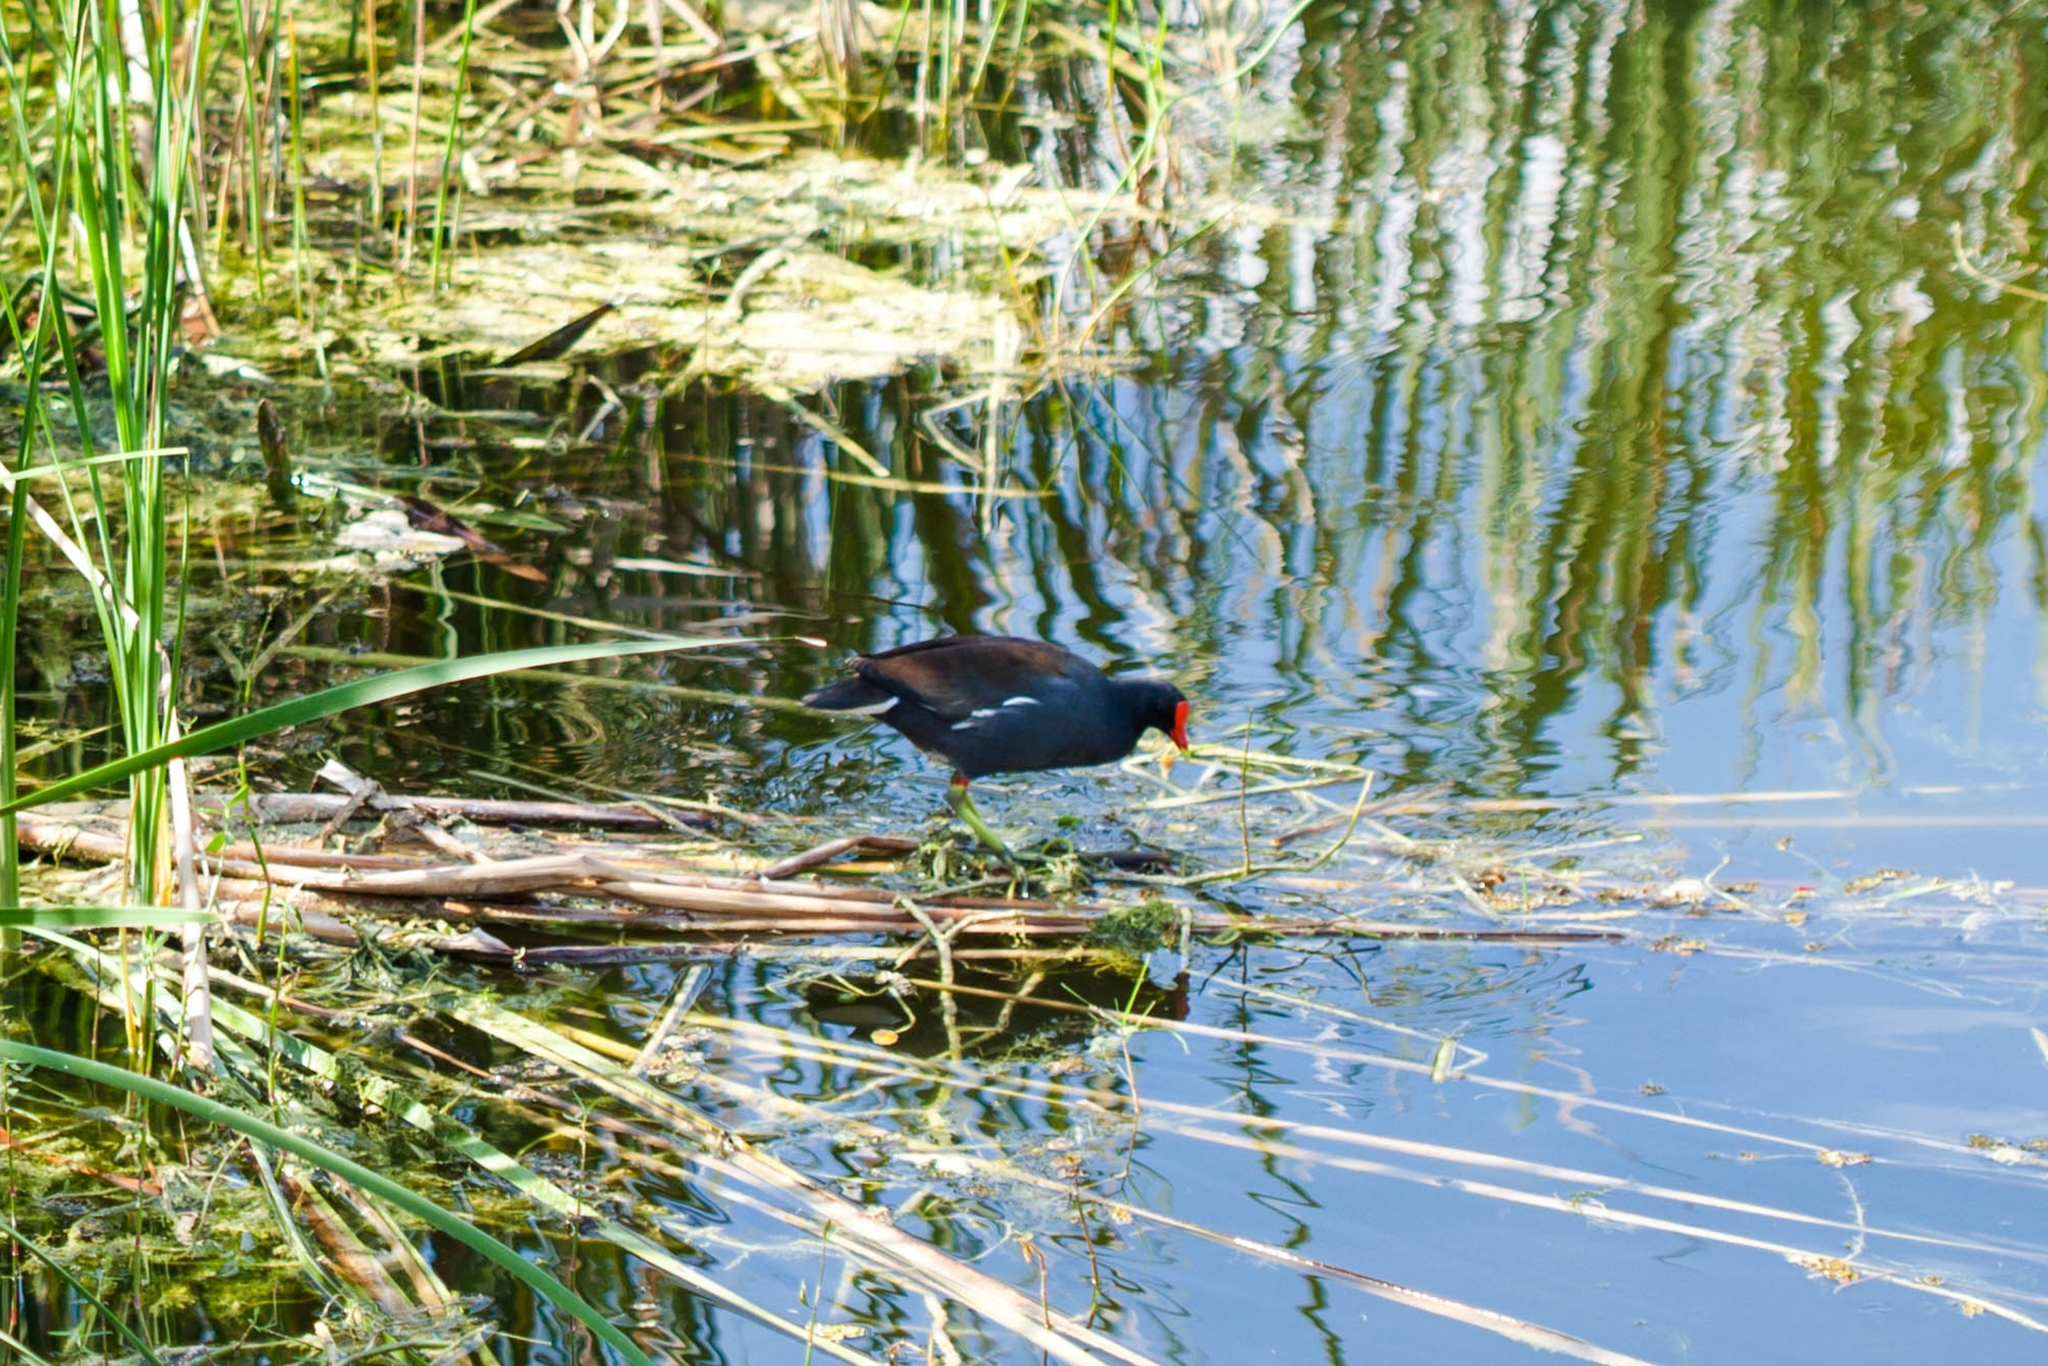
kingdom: Animalia
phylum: Chordata
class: Aves
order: Gruiformes
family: Rallidae
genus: Gallinula
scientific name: Gallinula chloropus
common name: Common moorhen
